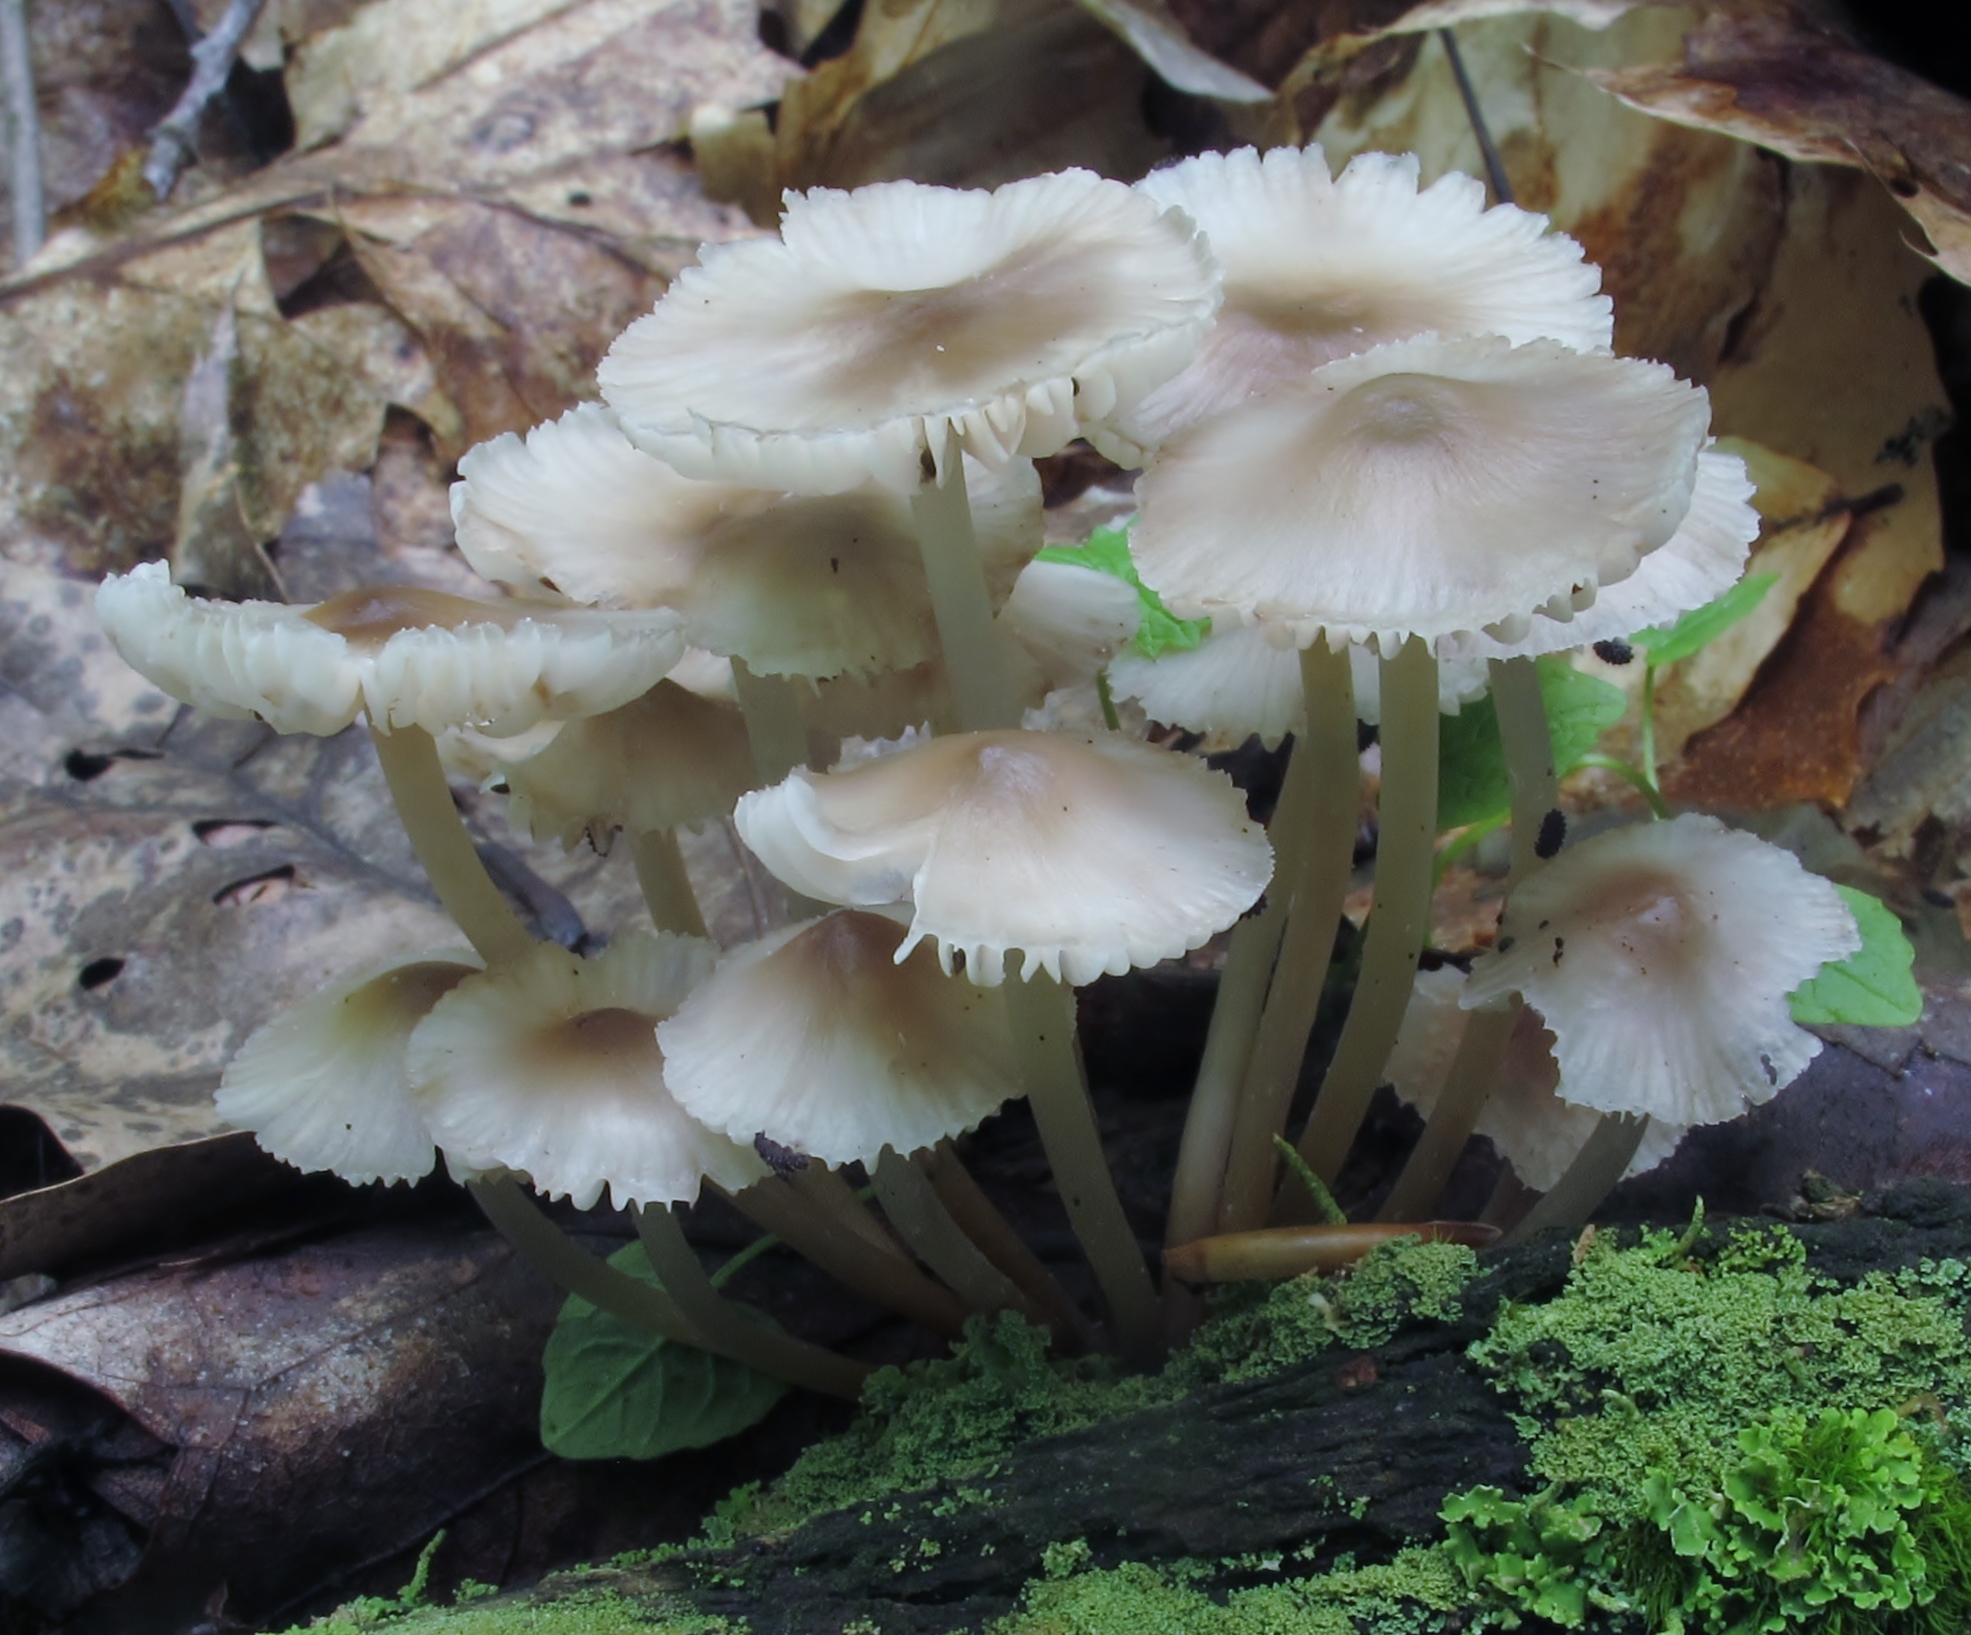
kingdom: Fungi
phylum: Basidiomycota
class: Agaricomycetes
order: Agaricales
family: Mycenaceae
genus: Mycena
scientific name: Mycena inclinata
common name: Clustered bonnet
